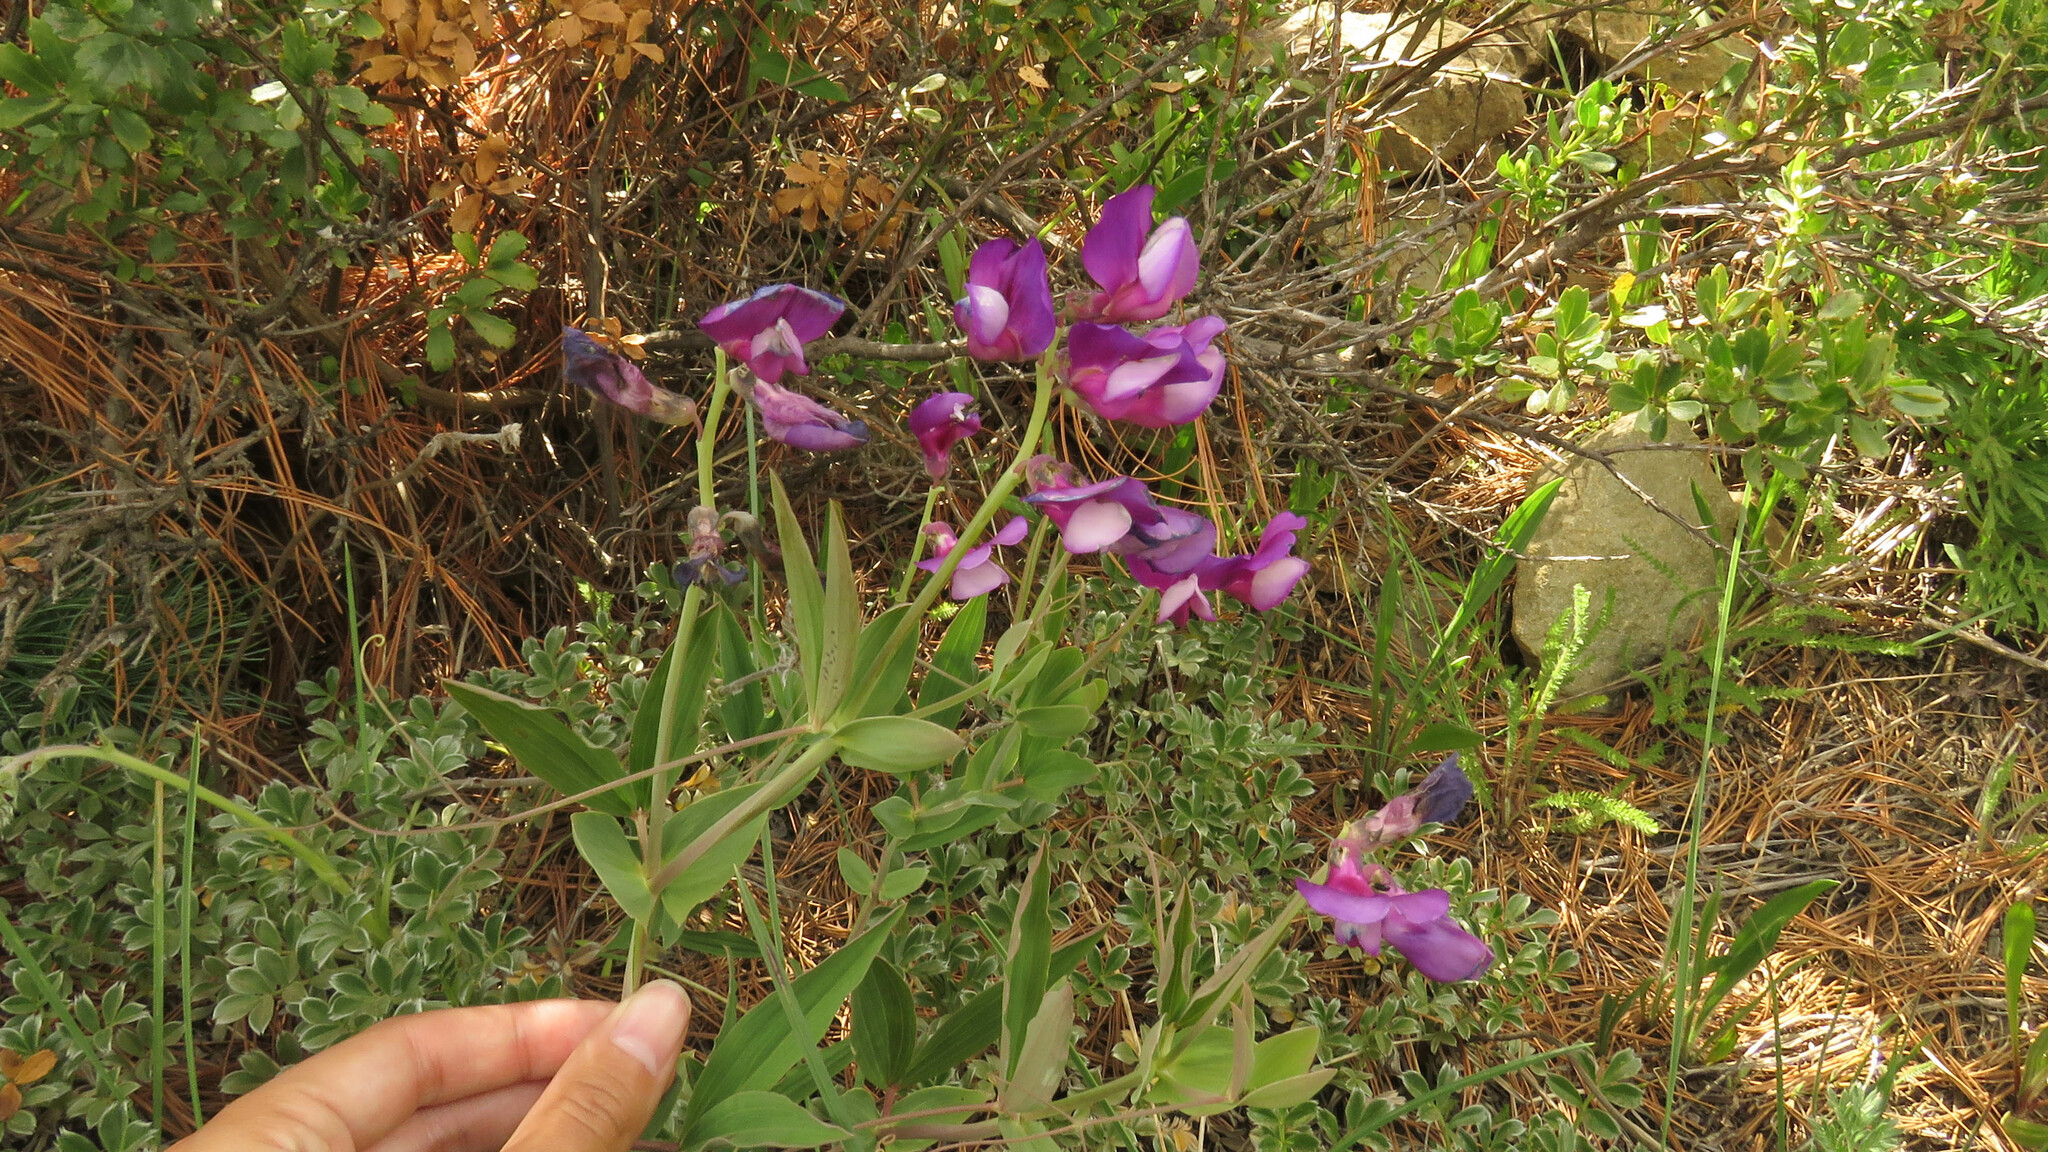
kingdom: Plantae
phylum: Tracheophyta
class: Magnoliopsida
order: Fabales
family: Fabaceae
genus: Lathyrus
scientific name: Lathyrus magellanicus
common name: Lord anson's pea
